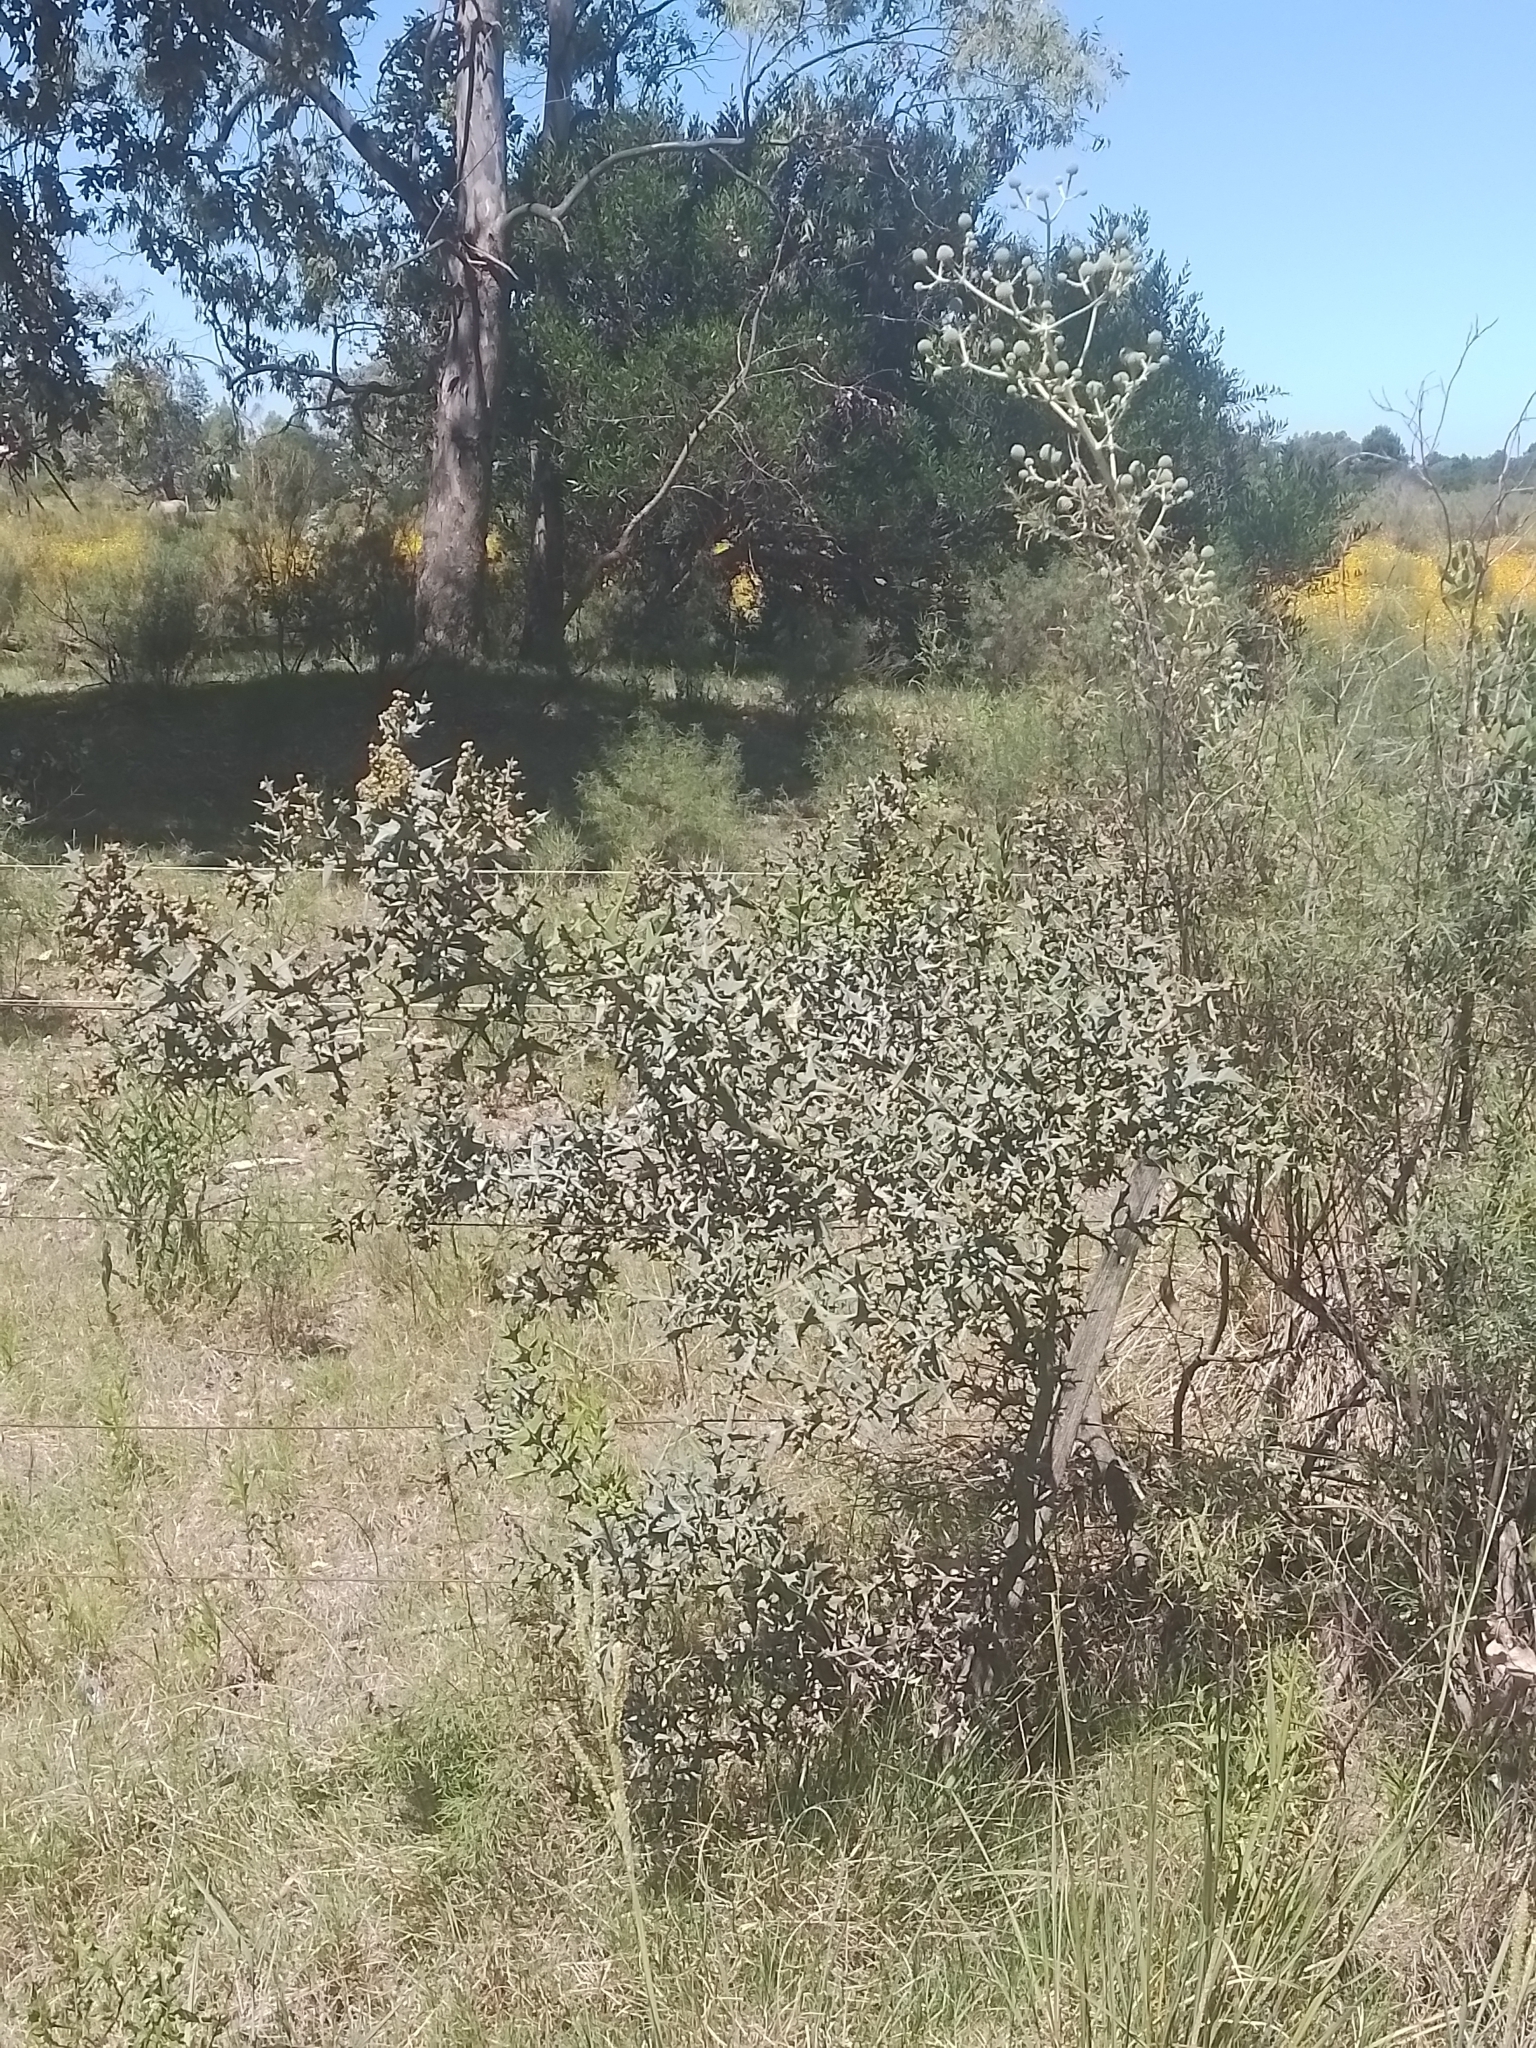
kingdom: Plantae
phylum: Tracheophyta
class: Magnoliopsida
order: Rosales
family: Rhamnaceae
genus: Colletia
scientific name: Colletia paradoxa
